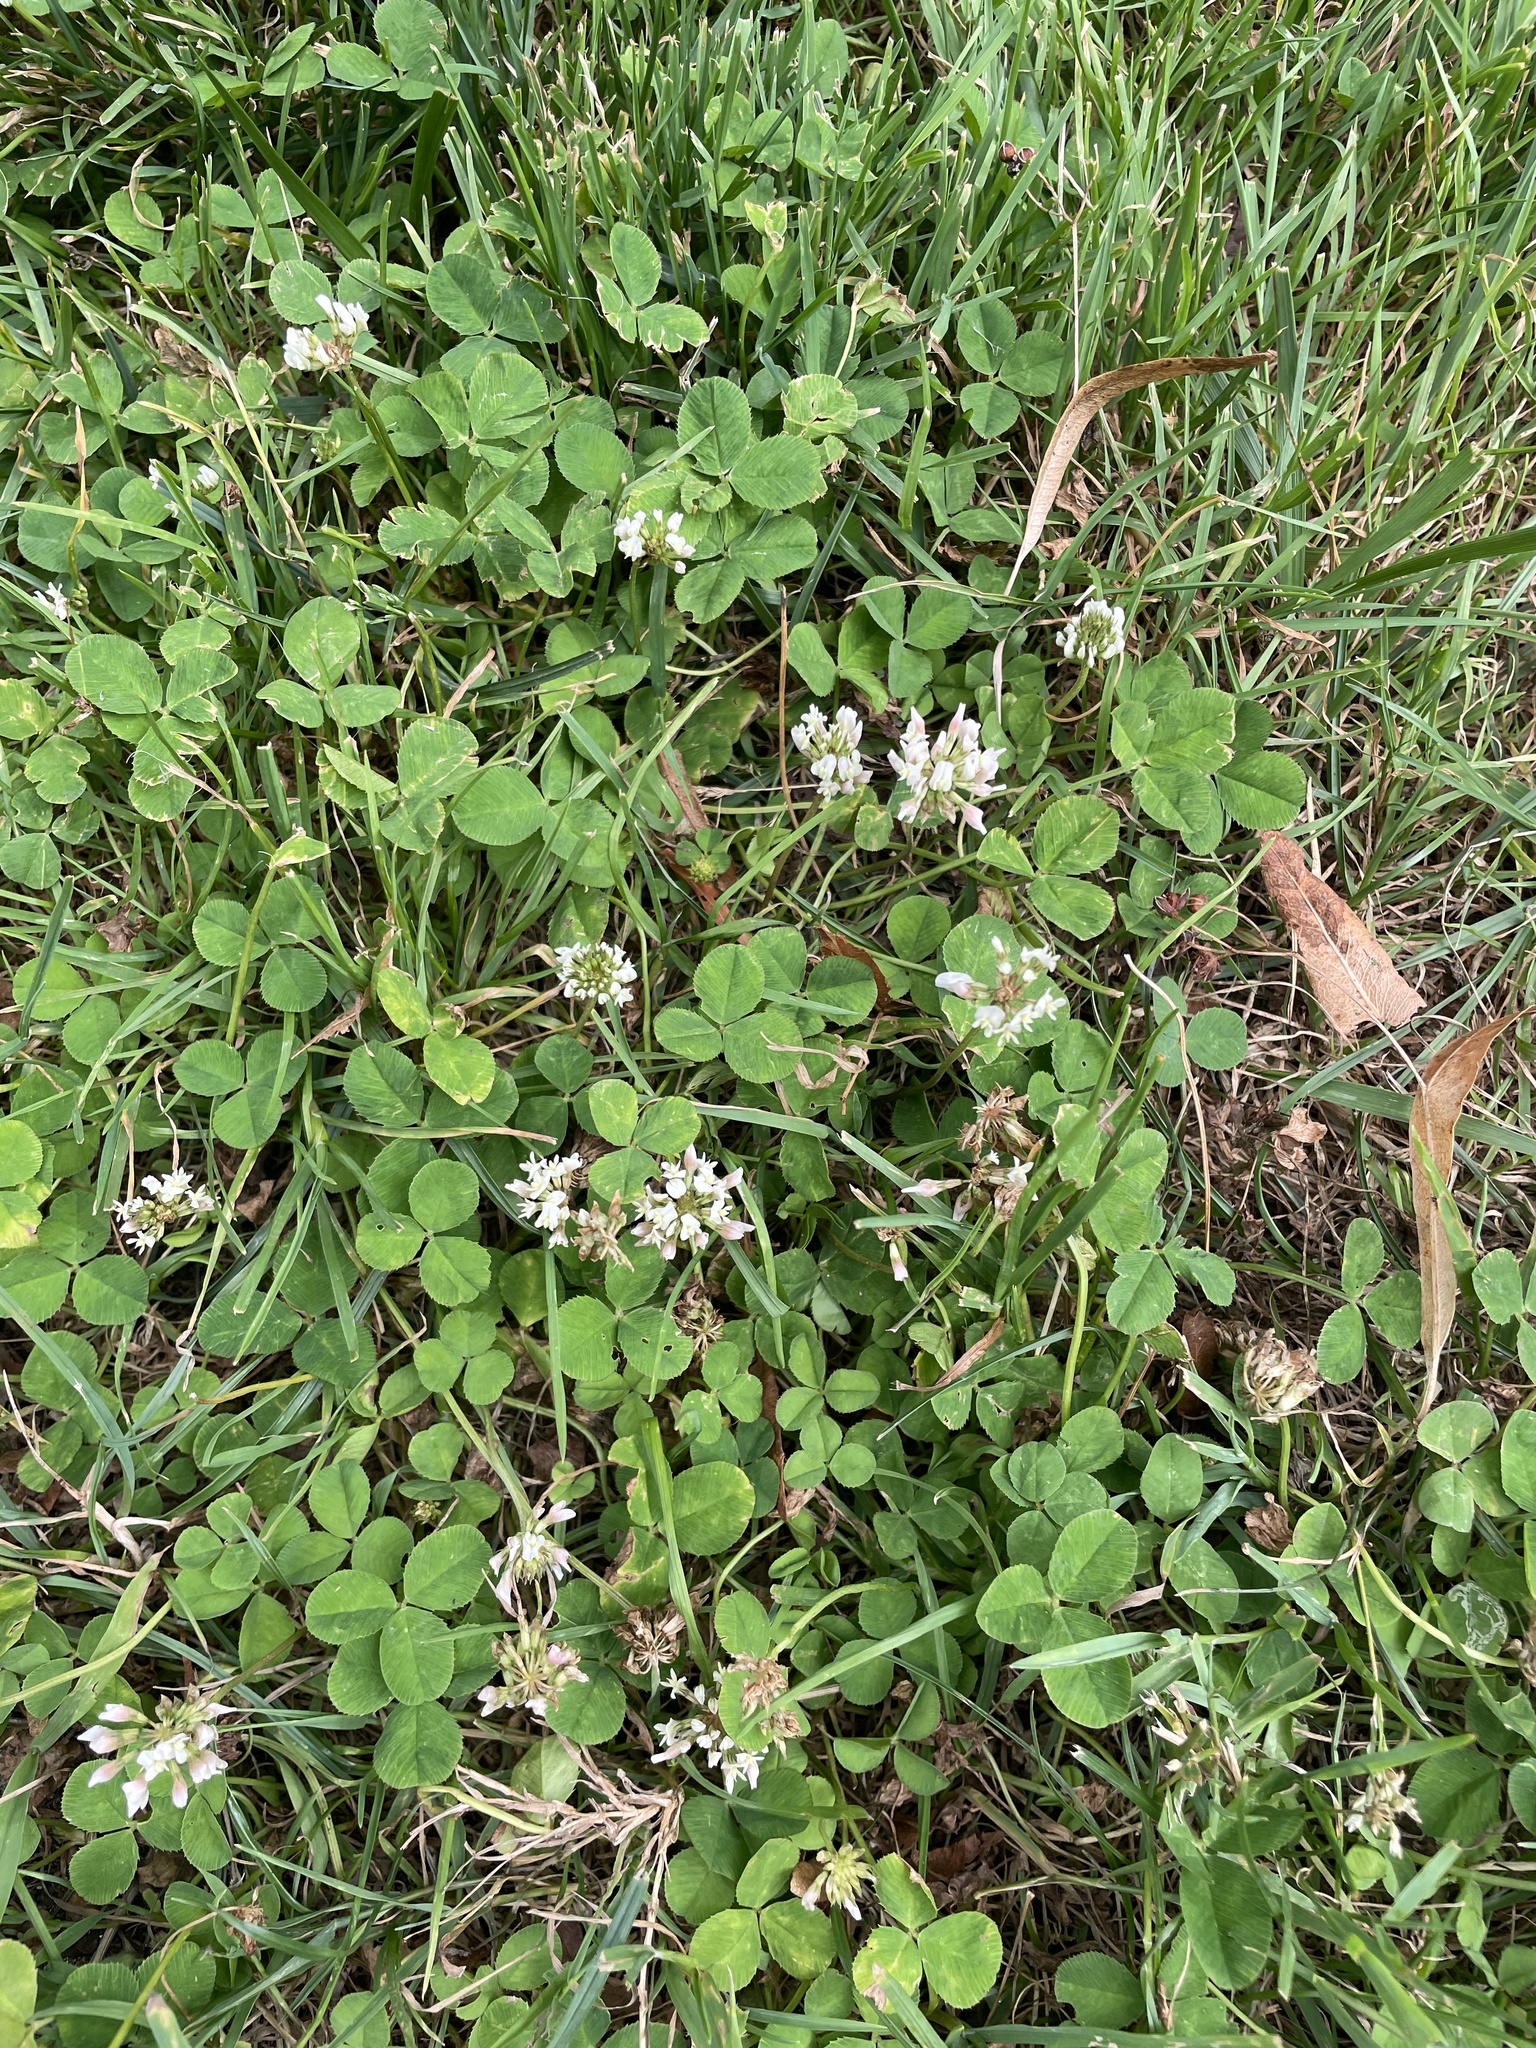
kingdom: Plantae
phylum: Tracheophyta
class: Magnoliopsida
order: Fabales
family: Fabaceae
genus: Trifolium
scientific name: Trifolium repens
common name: White clover
